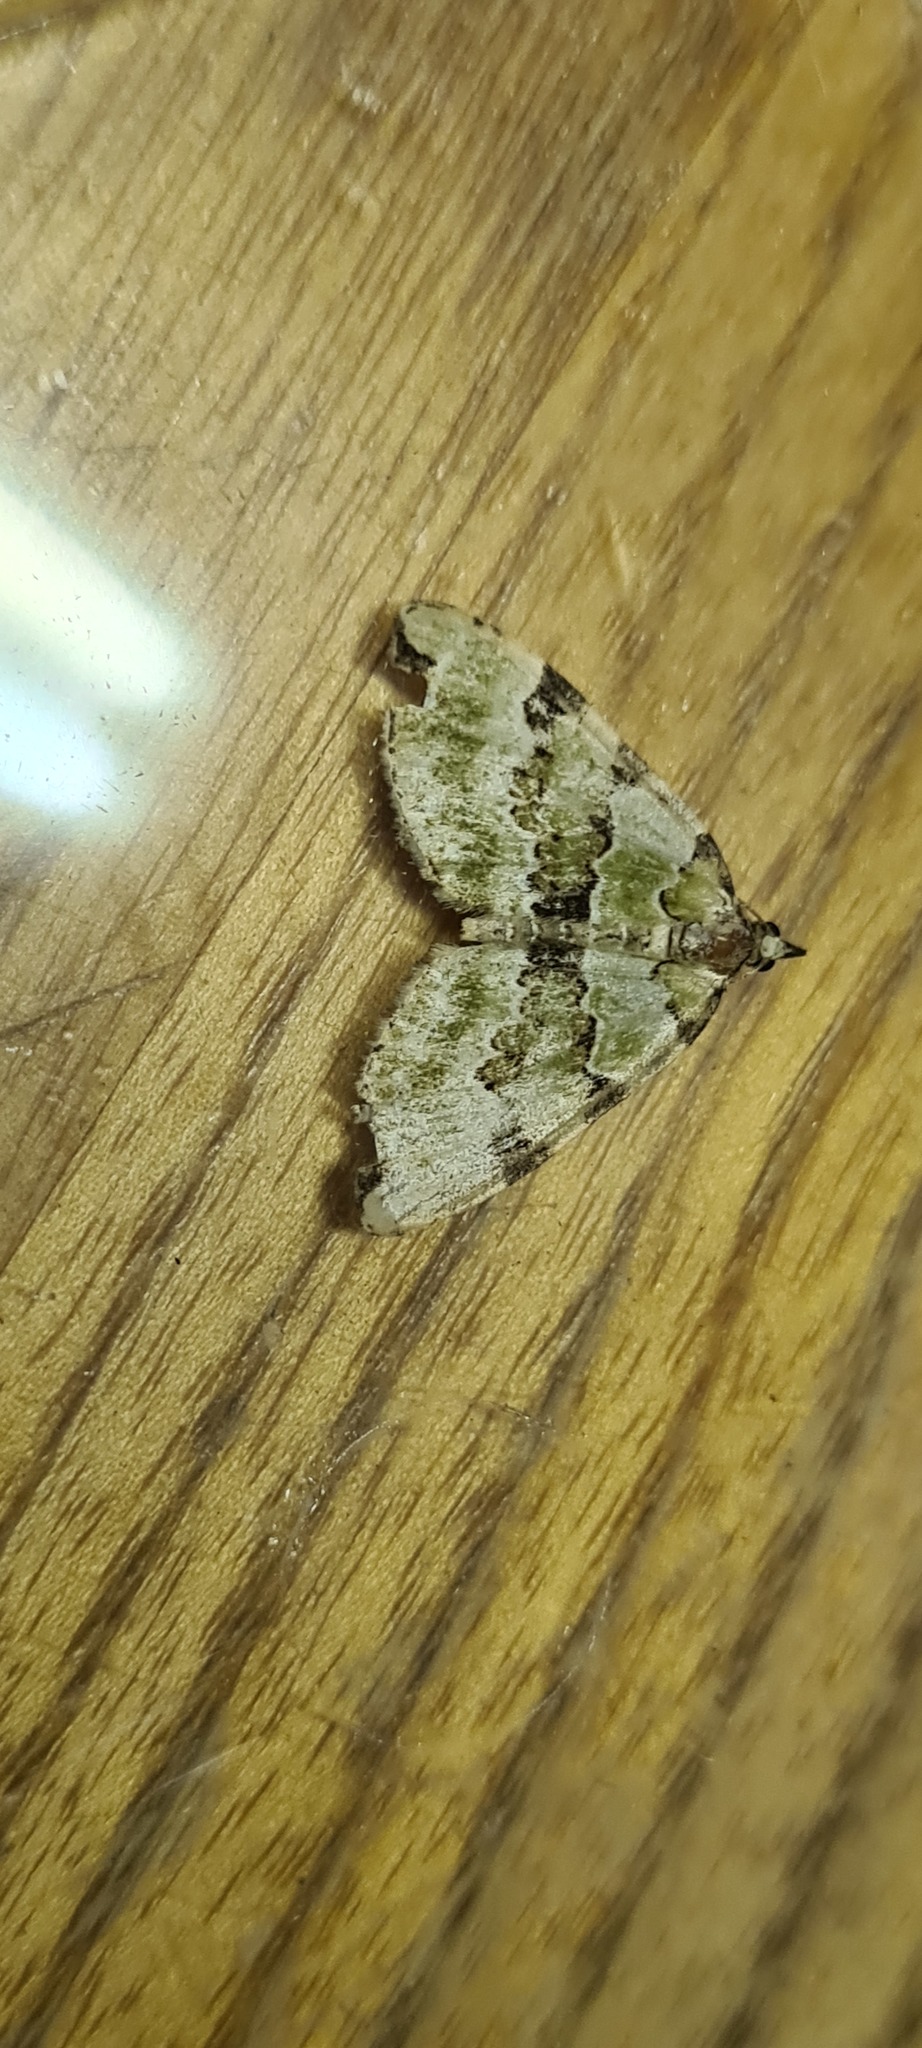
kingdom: Animalia
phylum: Arthropoda
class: Insecta
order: Lepidoptera
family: Geometridae
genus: Colostygia
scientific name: Colostygia pectinataria
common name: Green carpet
